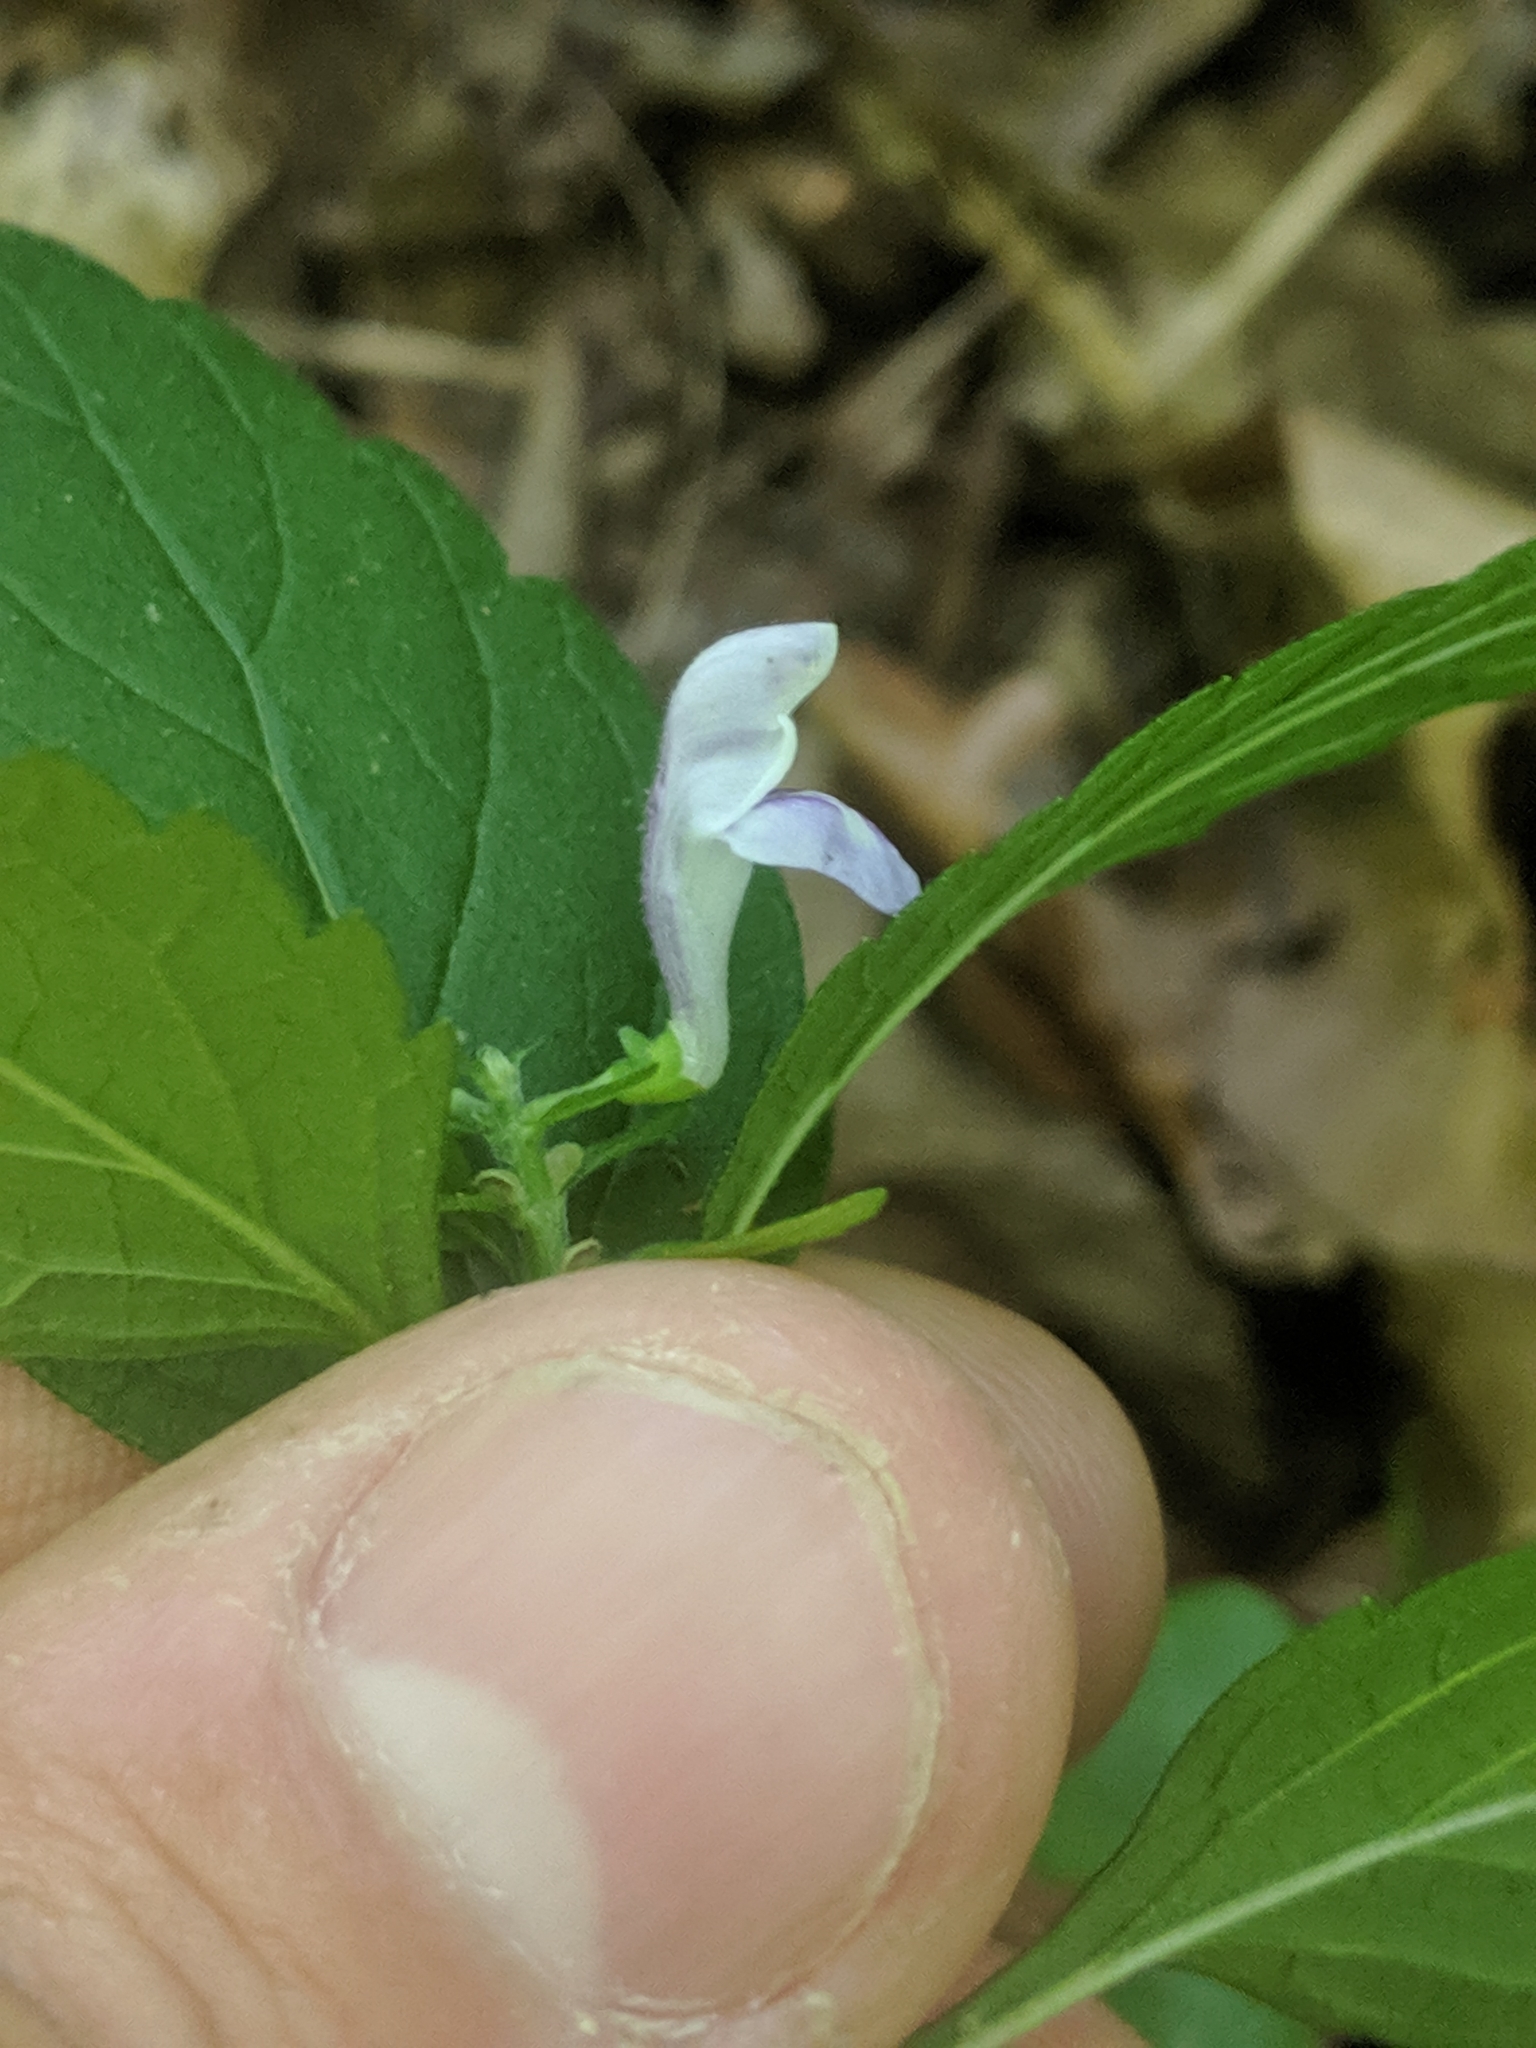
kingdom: Plantae
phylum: Tracheophyta
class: Magnoliopsida
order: Lamiales
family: Lamiaceae
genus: Scutellaria
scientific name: Scutellaria elliptica
